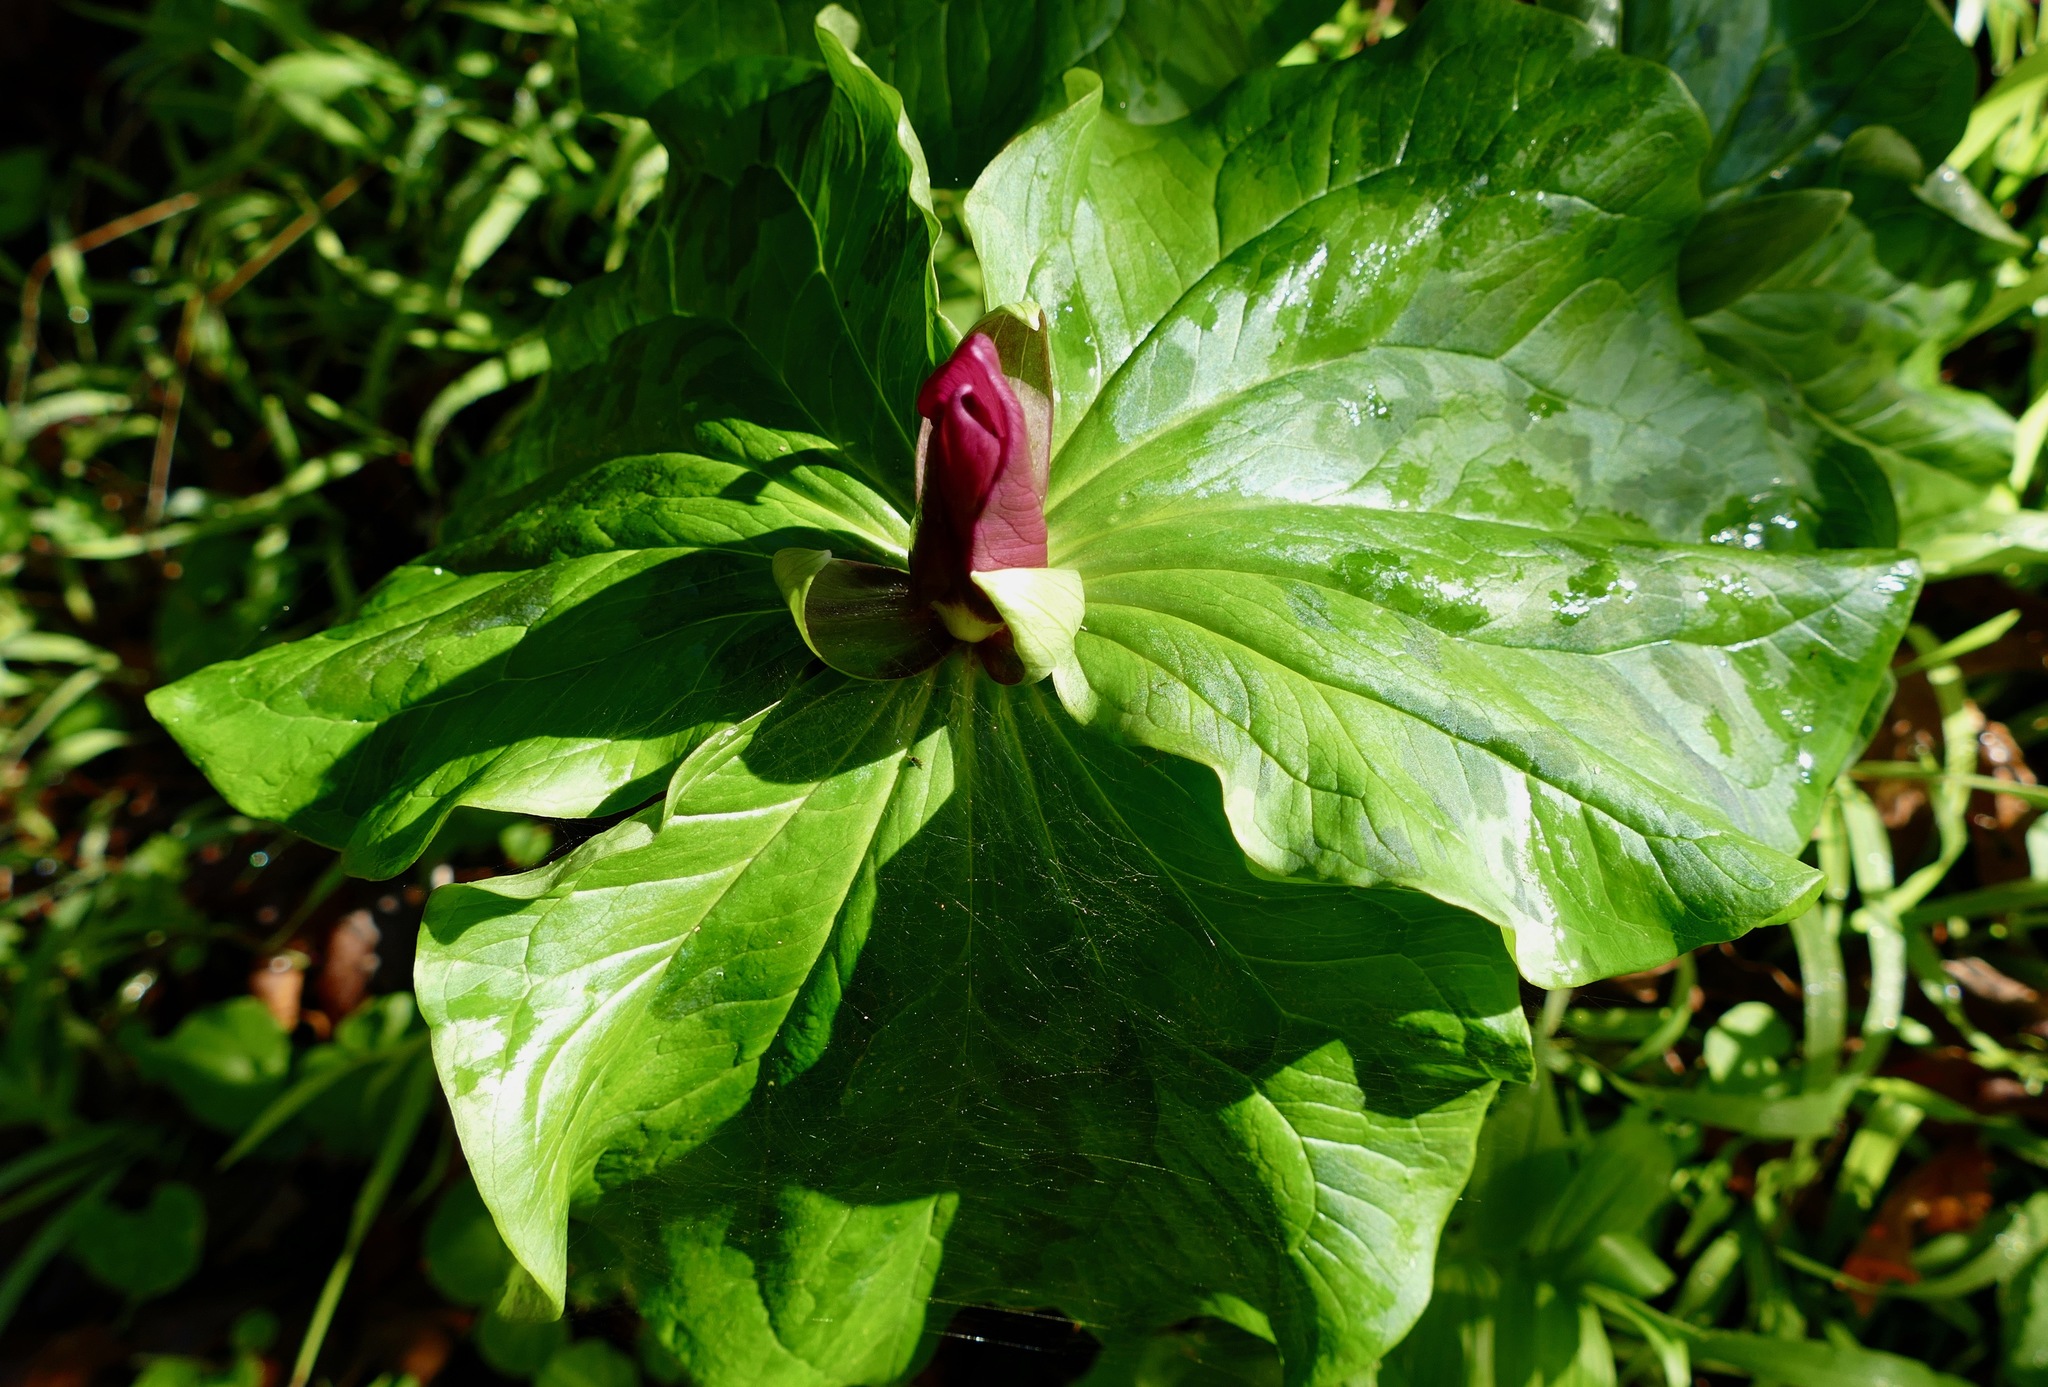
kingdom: Plantae
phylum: Tracheophyta
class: Liliopsida
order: Liliales
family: Melanthiaceae
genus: Trillium
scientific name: Trillium chloropetalum
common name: Giant trillium
